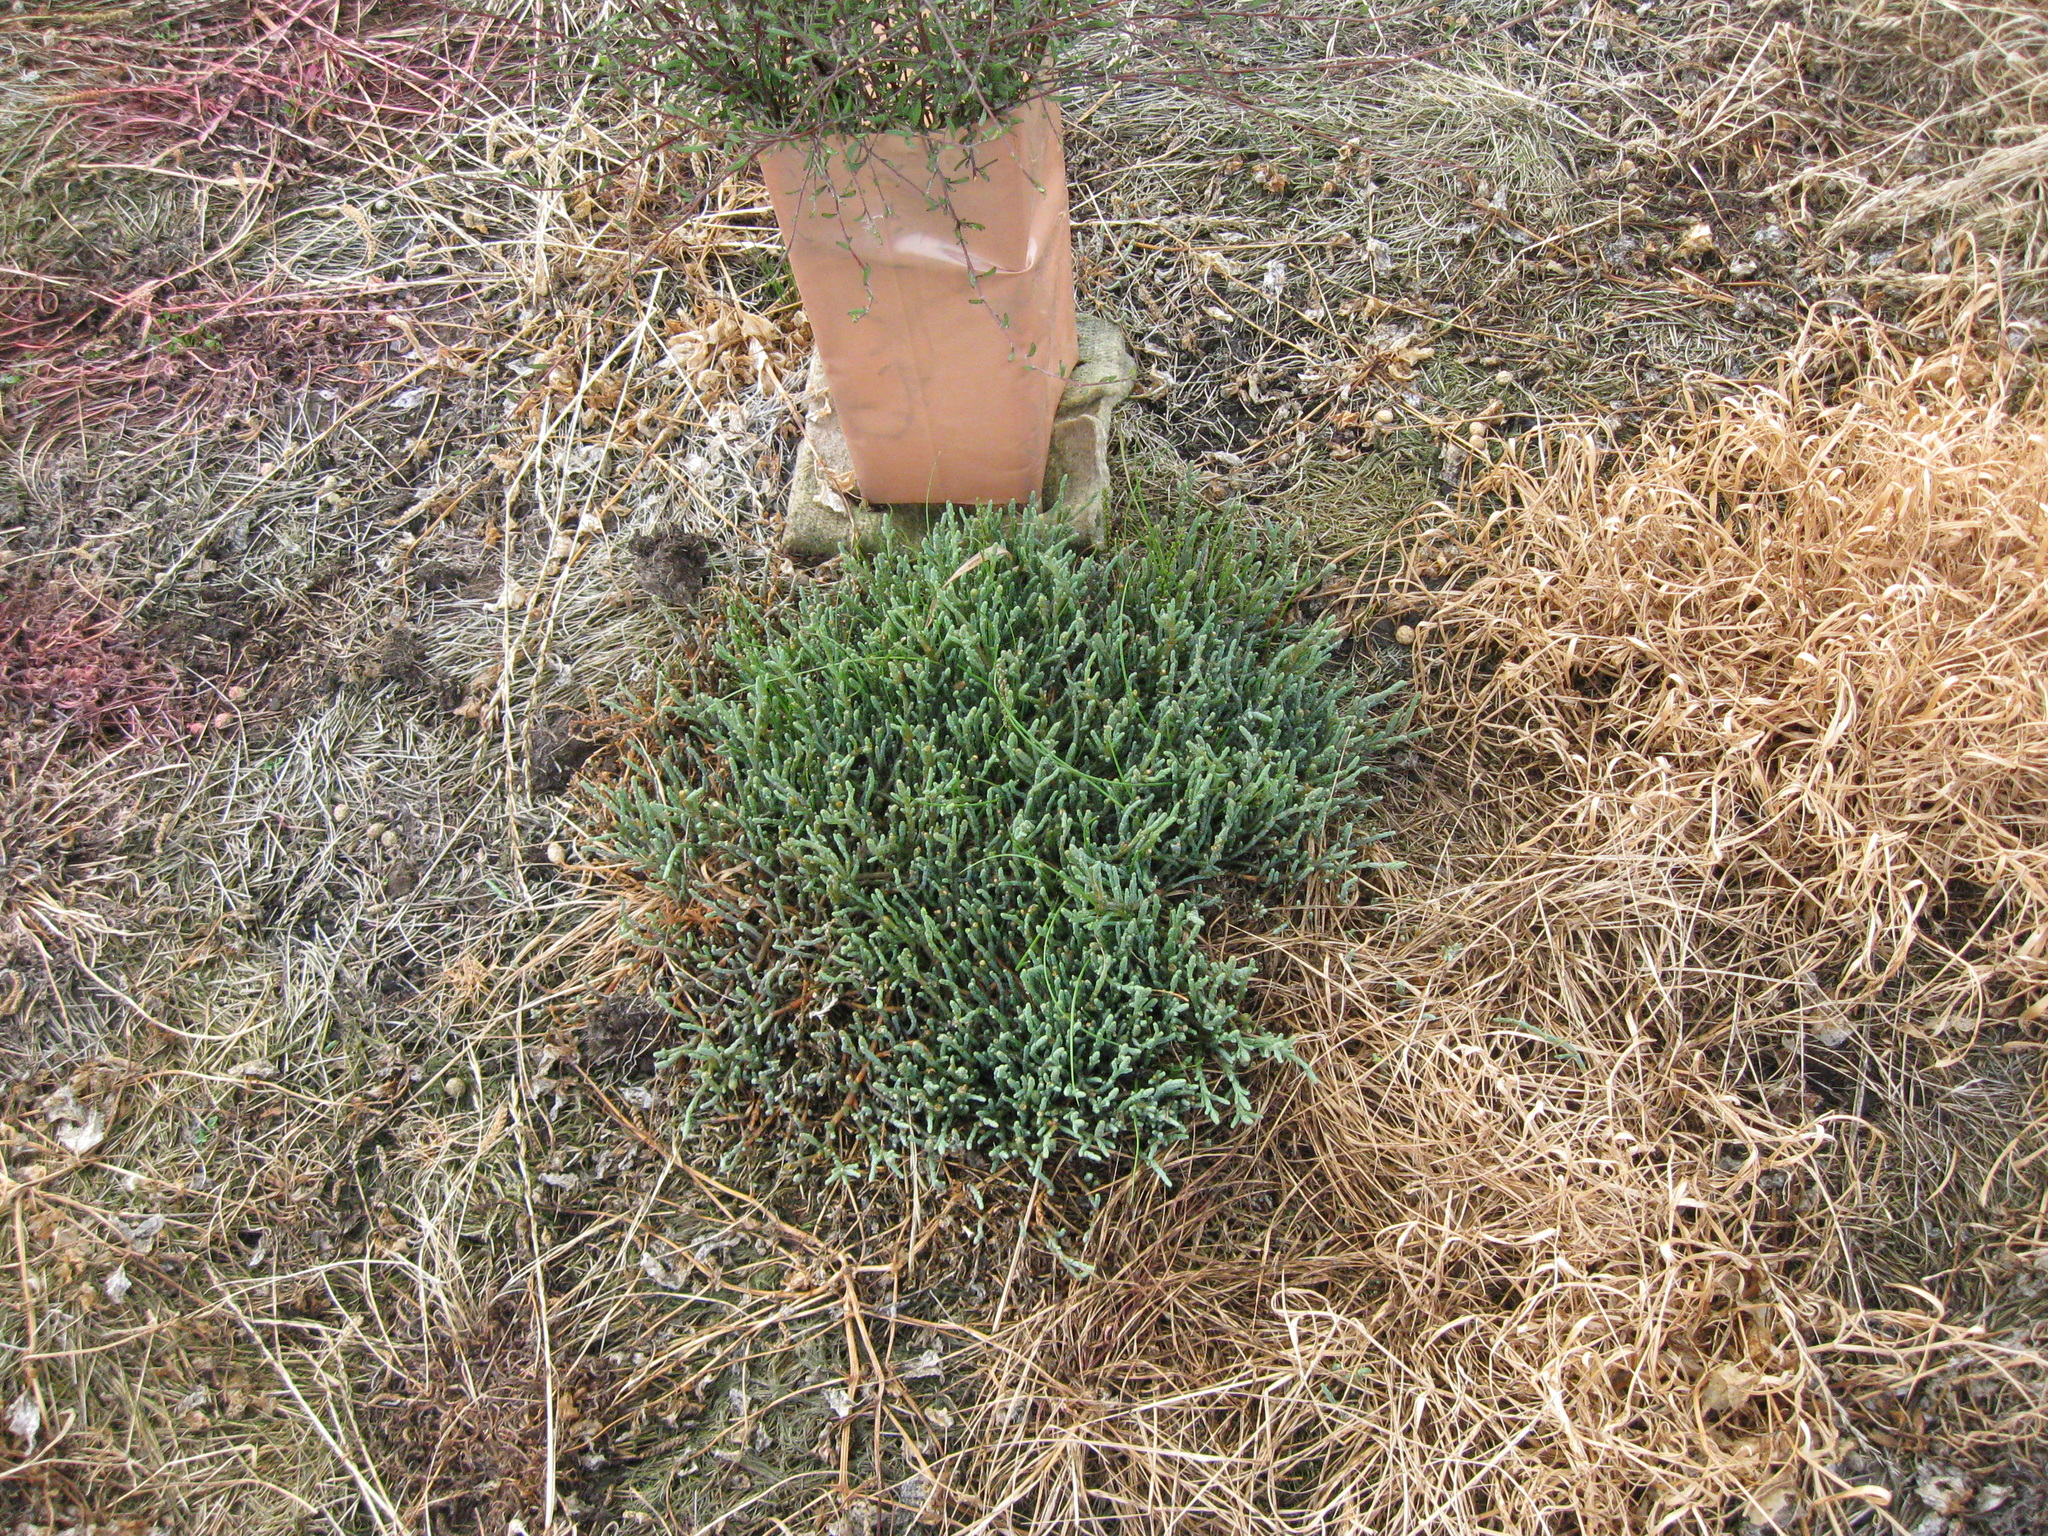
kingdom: Plantae
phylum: Tracheophyta
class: Magnoliopsida
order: Caryophyllales
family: Amaranthaceae
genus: Salicornia
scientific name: Salicornia quinqueflora
